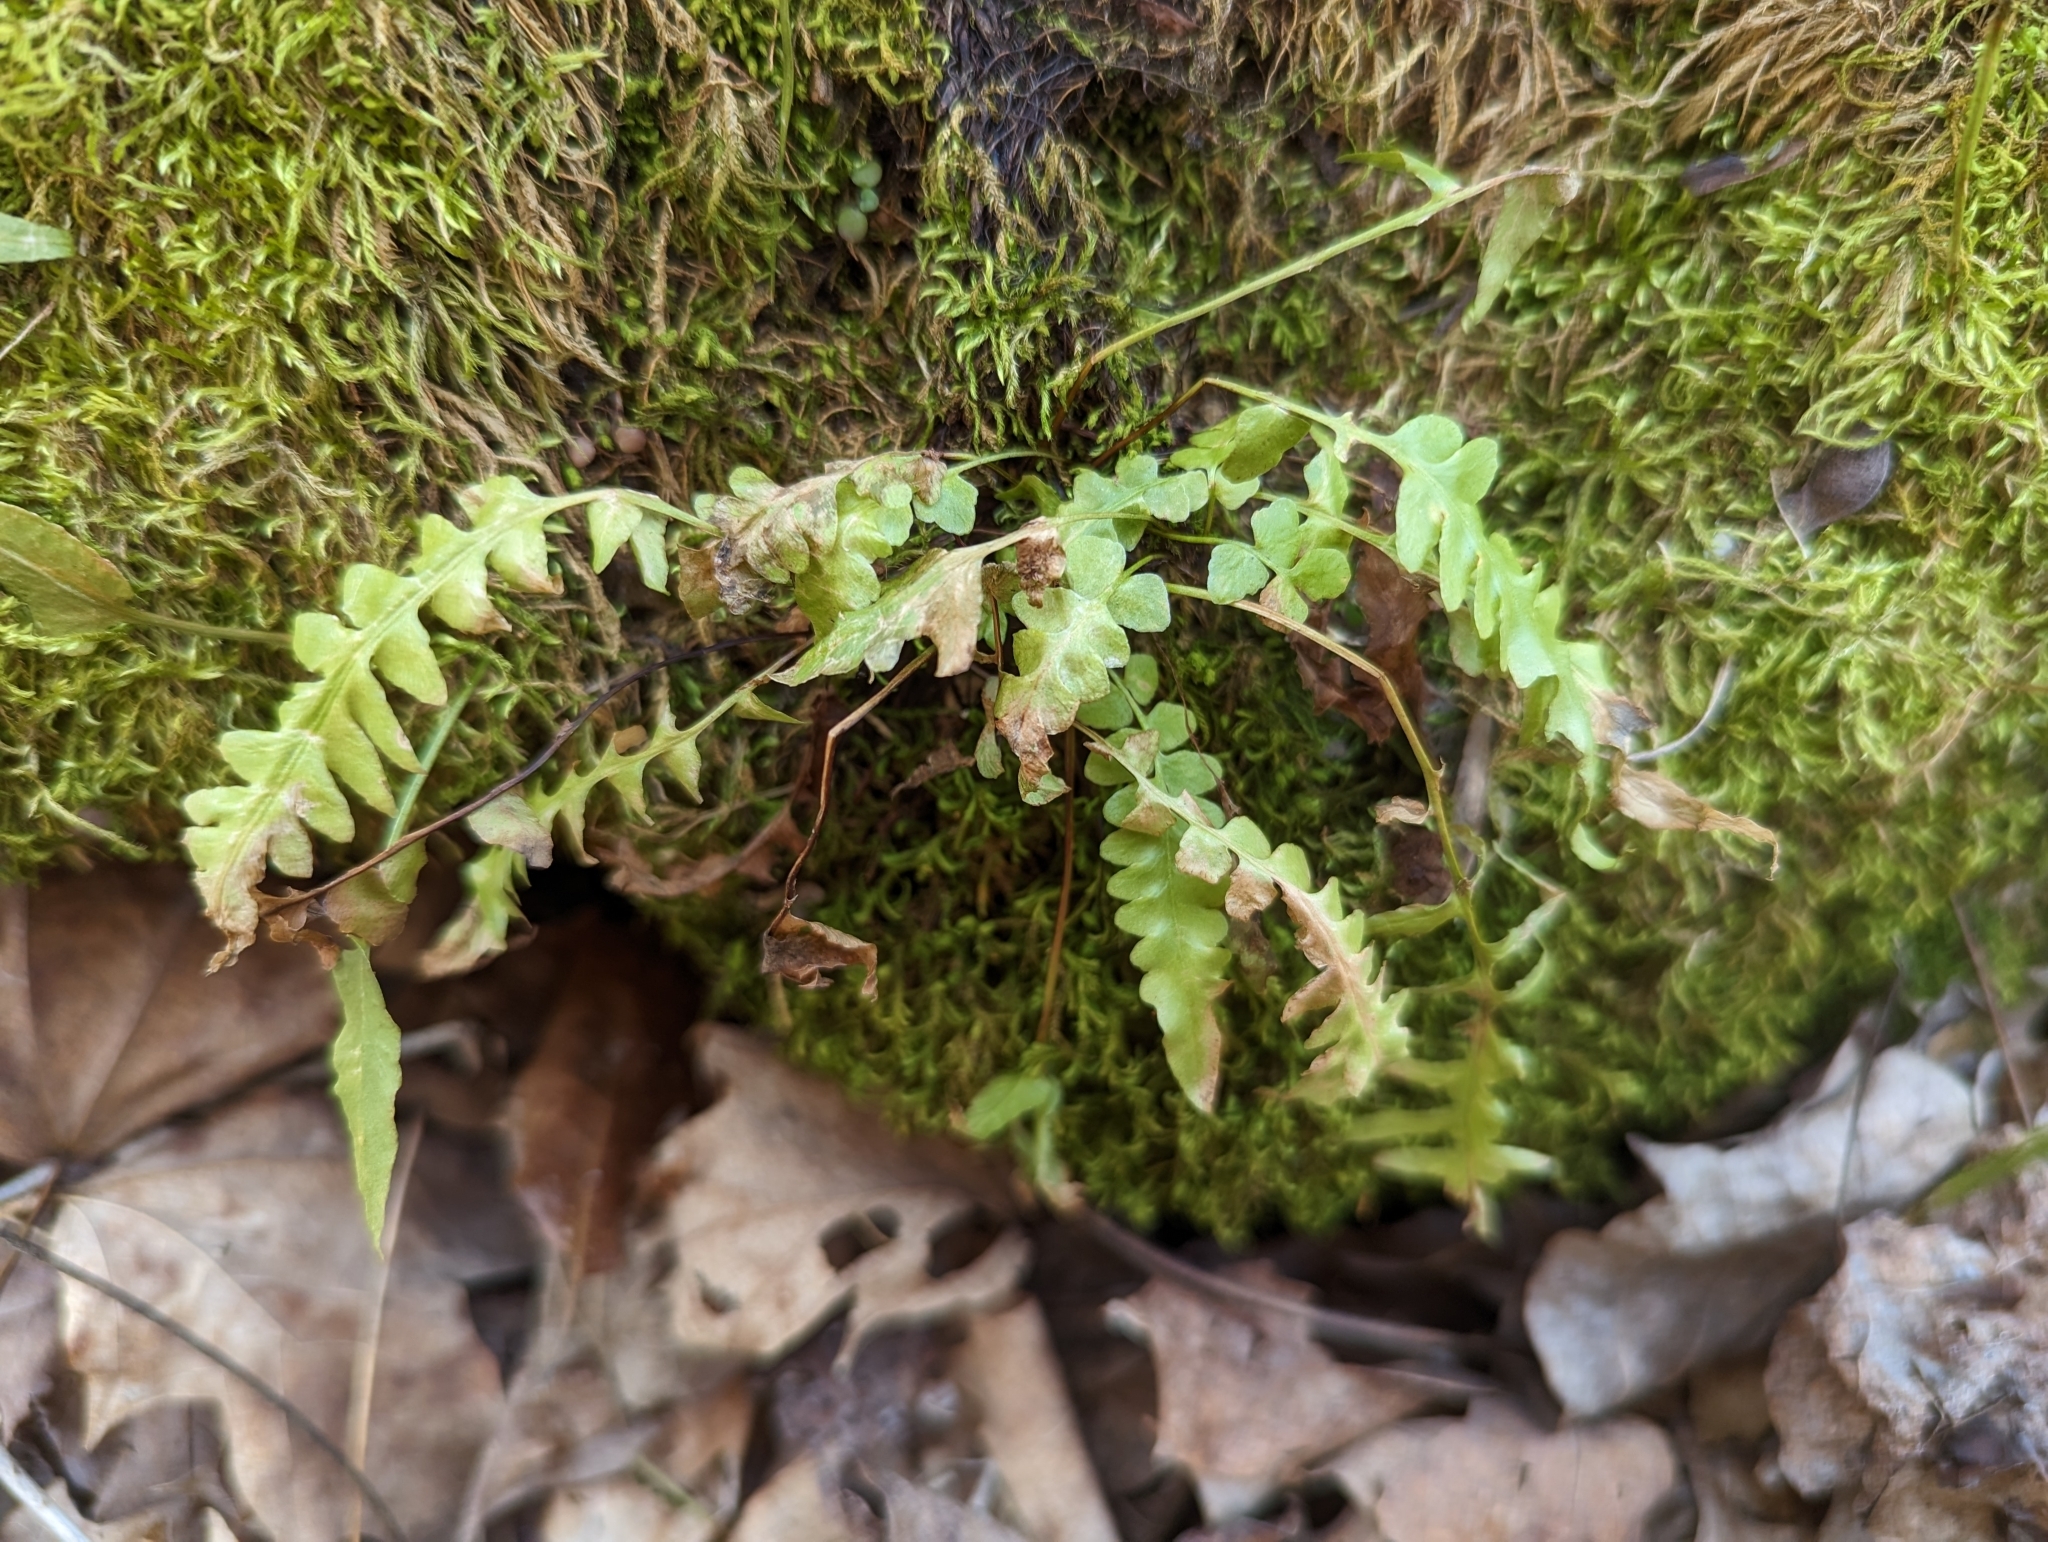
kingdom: Plantae
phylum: Tracheophyta
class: Polypodiopsida
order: Polypodiales
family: Aspleniaceae
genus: Asplenium
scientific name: Asplenium ebenoides
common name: Dragon-tail fern
